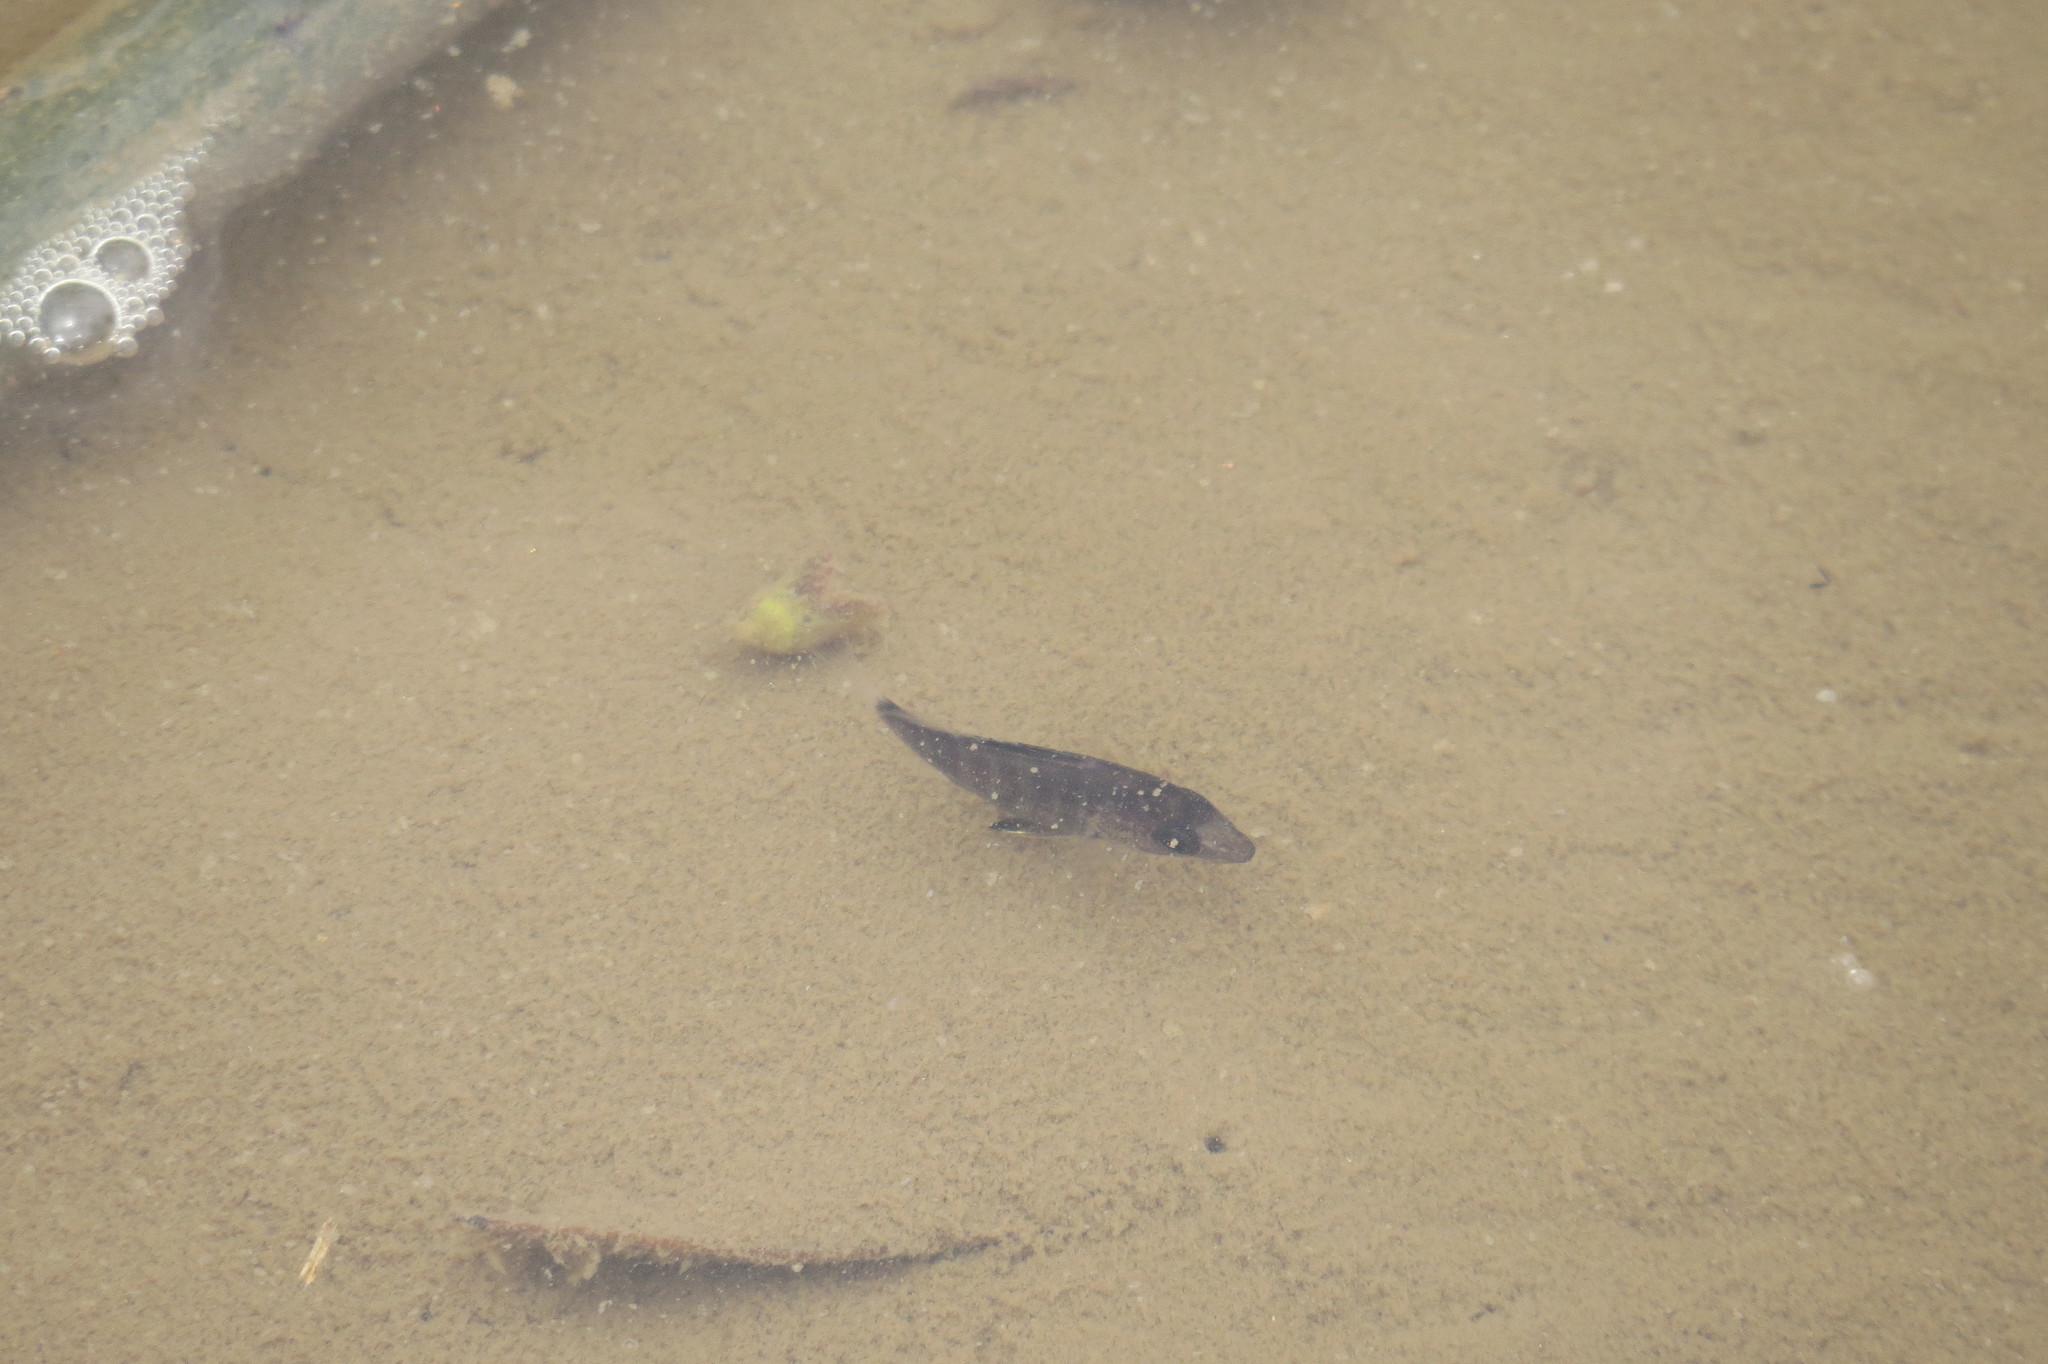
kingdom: Animalia
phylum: Chordata
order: Perciformes
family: Lutjanidae
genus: Lutjanus
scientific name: Lutjanus argentimaculatus
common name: Mangrove red snapper
